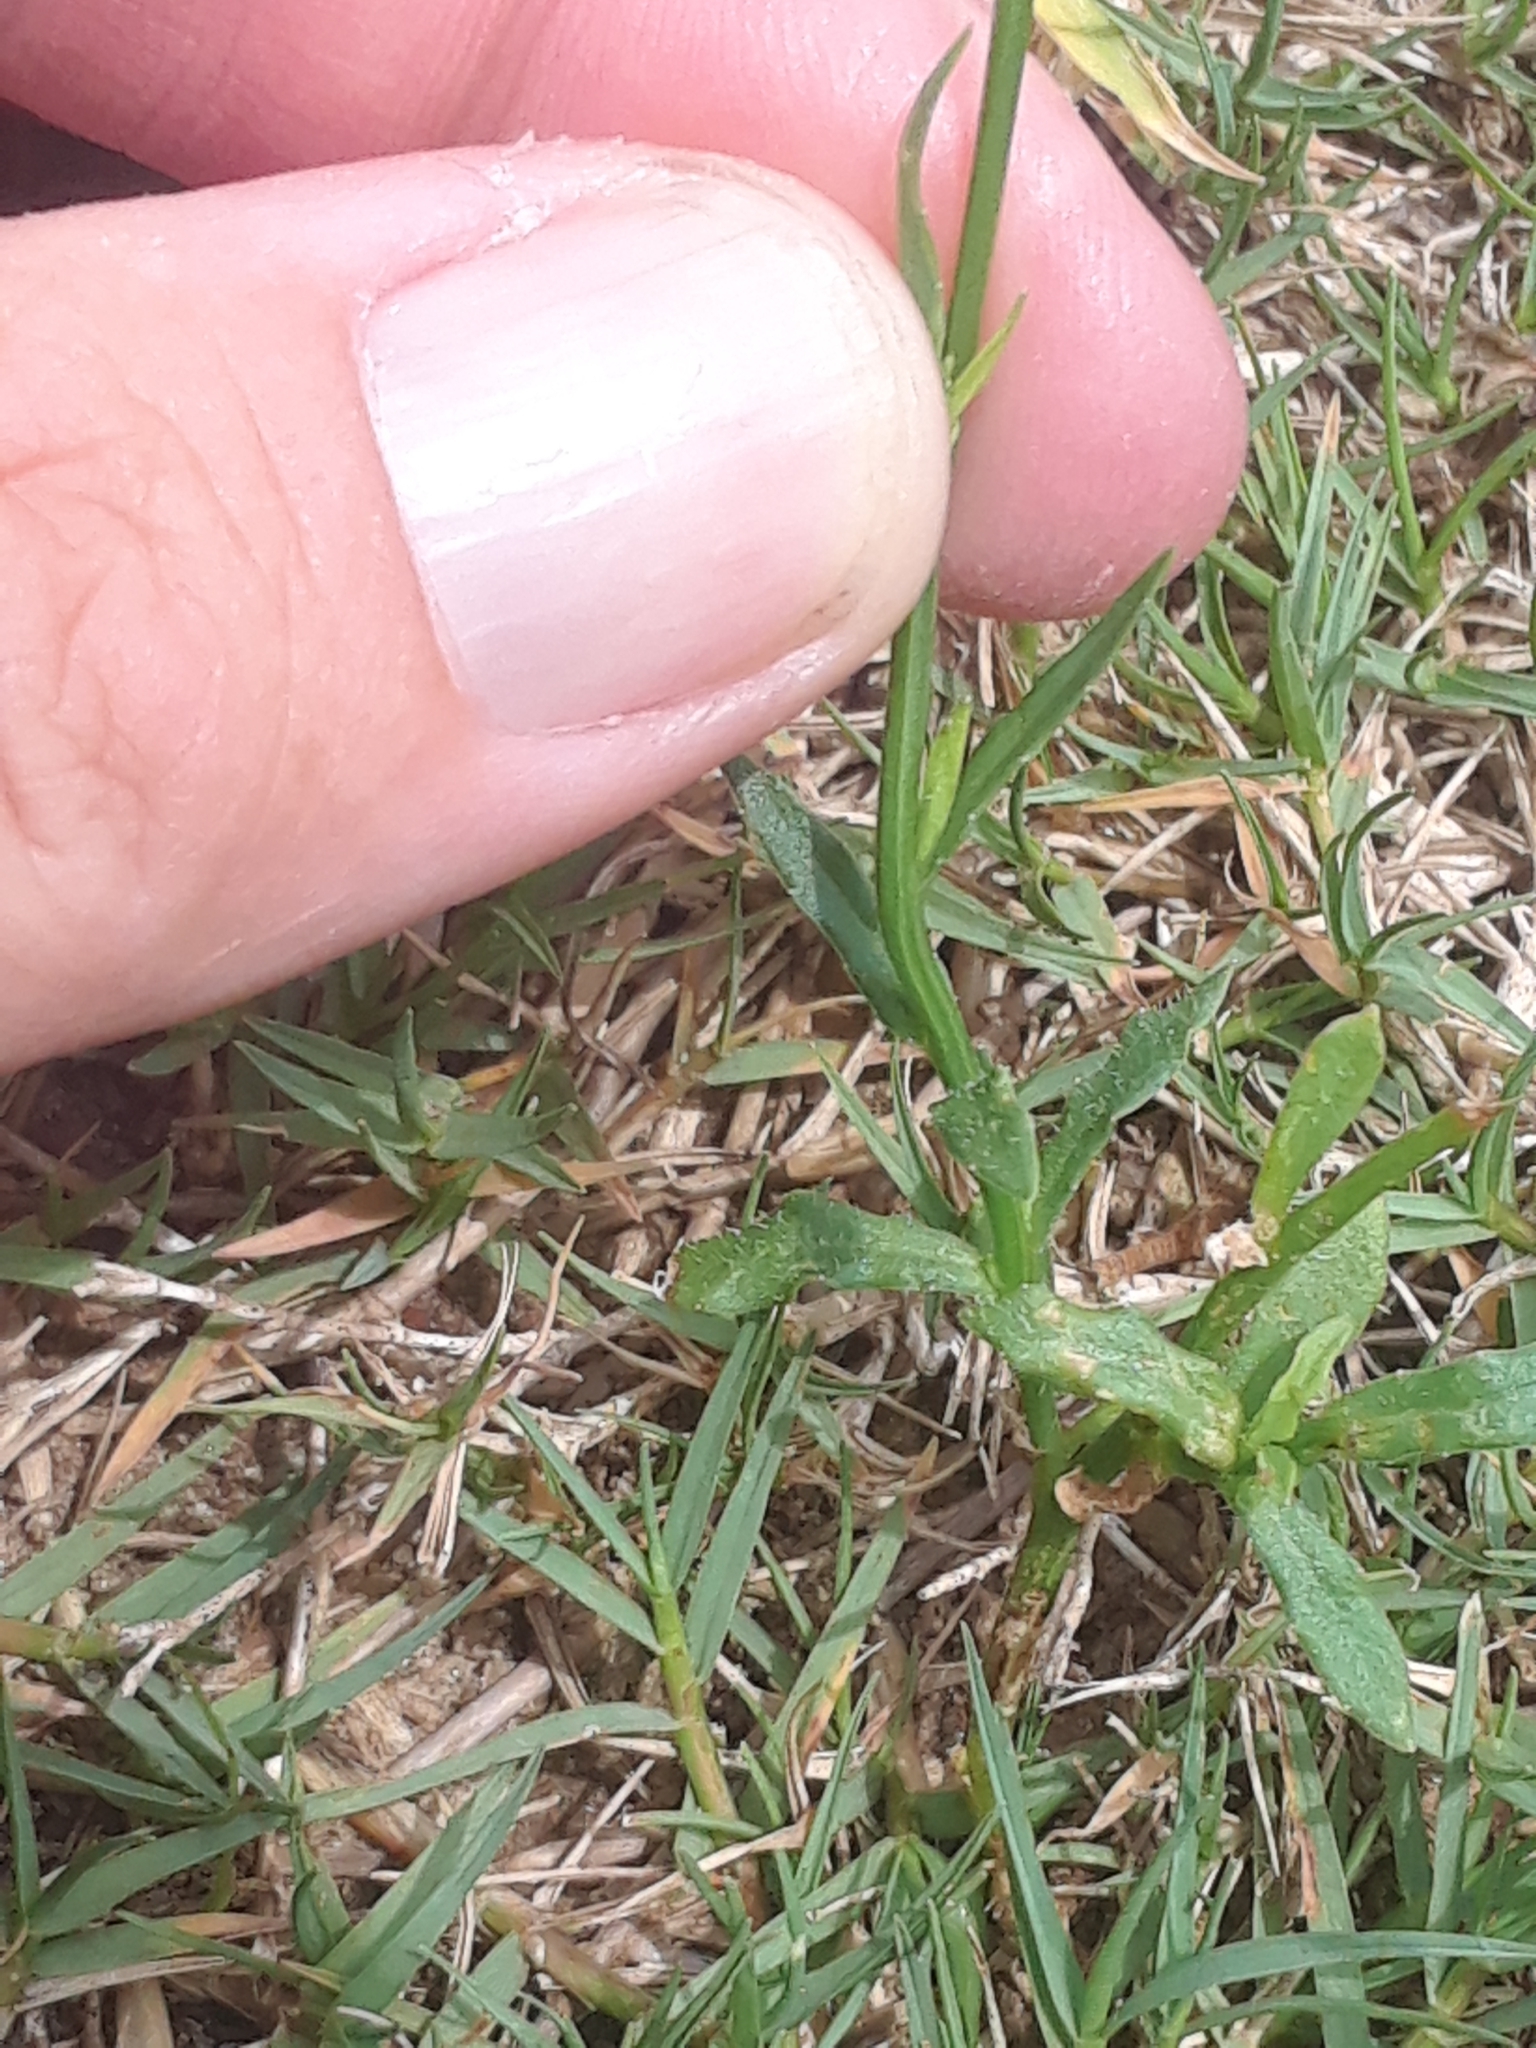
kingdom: Plantae
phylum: Tracheophyta
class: Magnoliopsida
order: Asterales
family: Campanulaceae
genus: Wahlenbergia
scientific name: Wahlenbergia marginata
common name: Southern rockbell
